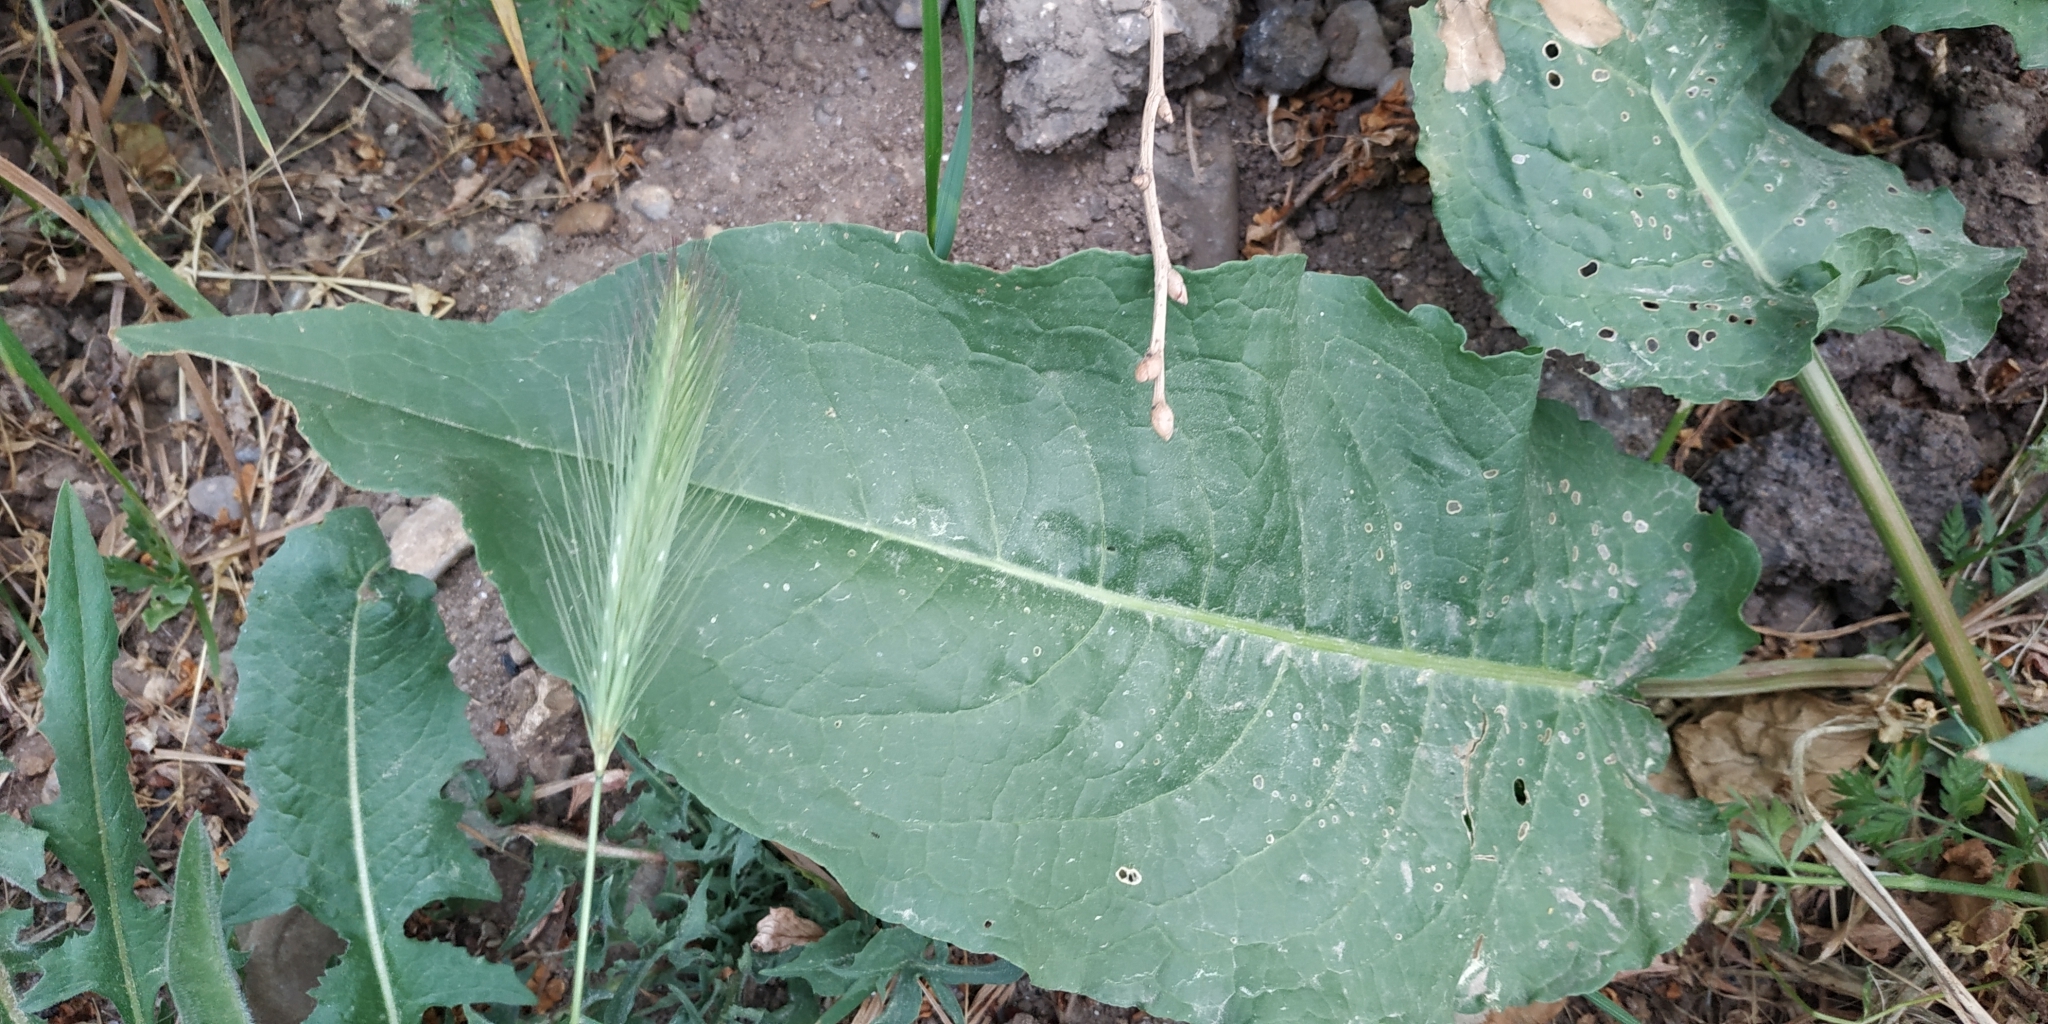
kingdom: Plantae
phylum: Tracheophyta
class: Magnoliopsida
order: Caryophyllales
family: Polygonaceae
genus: Rumex
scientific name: Rumex patientia
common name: Patience dock
